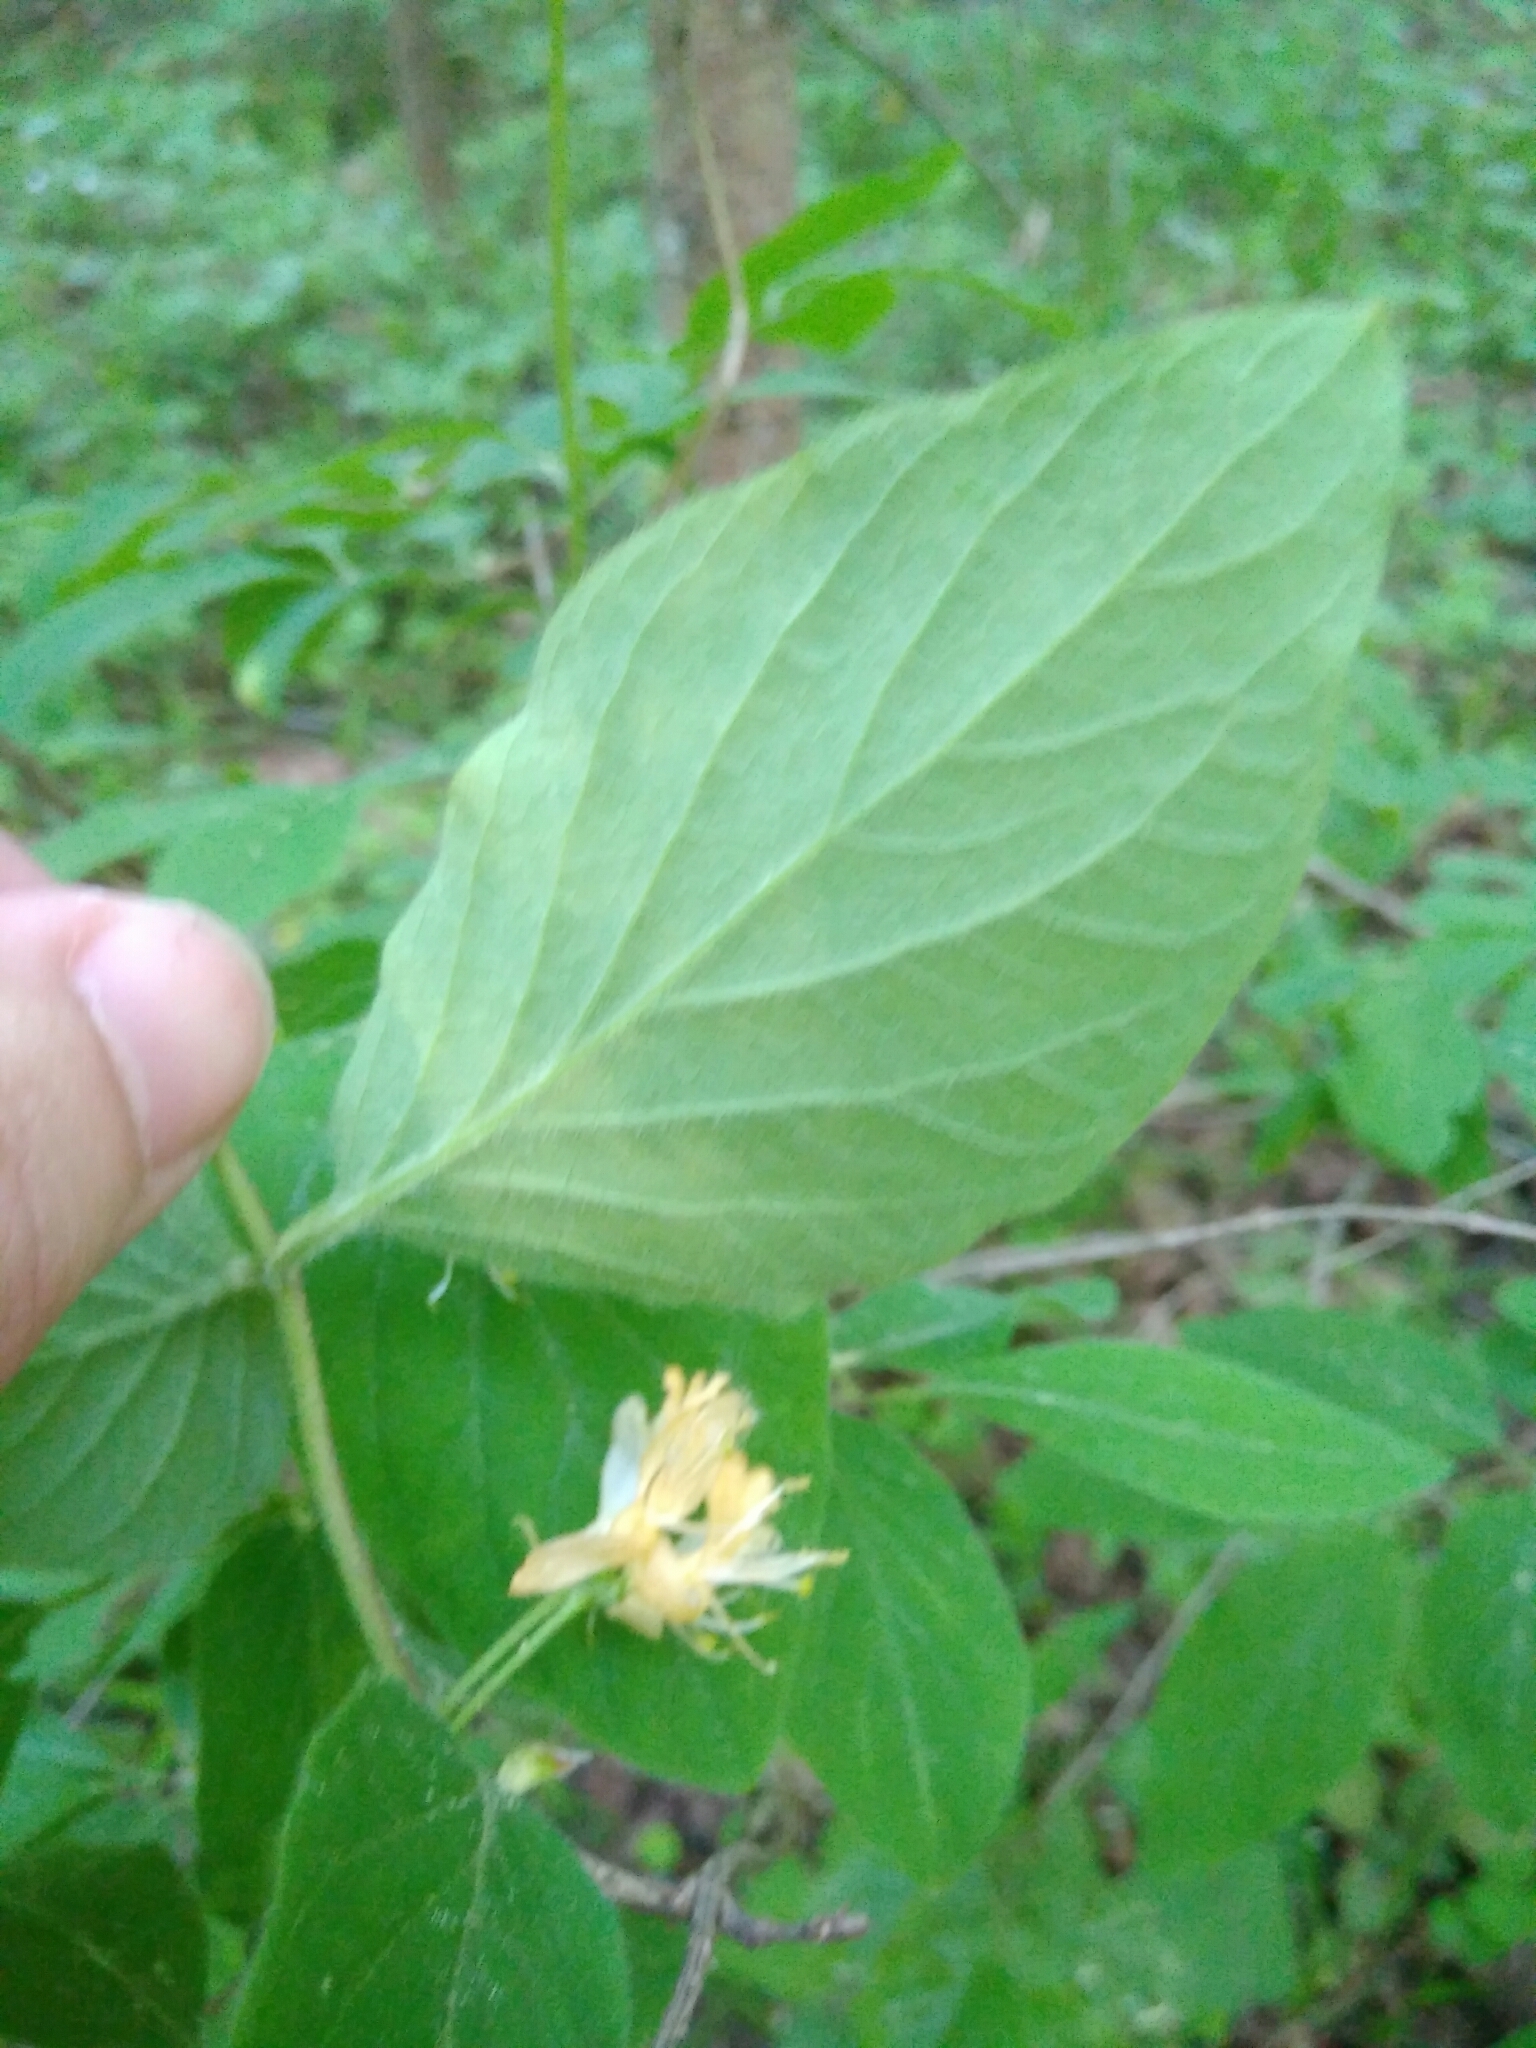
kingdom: Plantae
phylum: Tracheophyta
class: Magnoliopsida
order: Dipsacales
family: Caprifoliaceae
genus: Lonicera
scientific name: Lonicera xylosteum
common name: Fly honeysuckle
